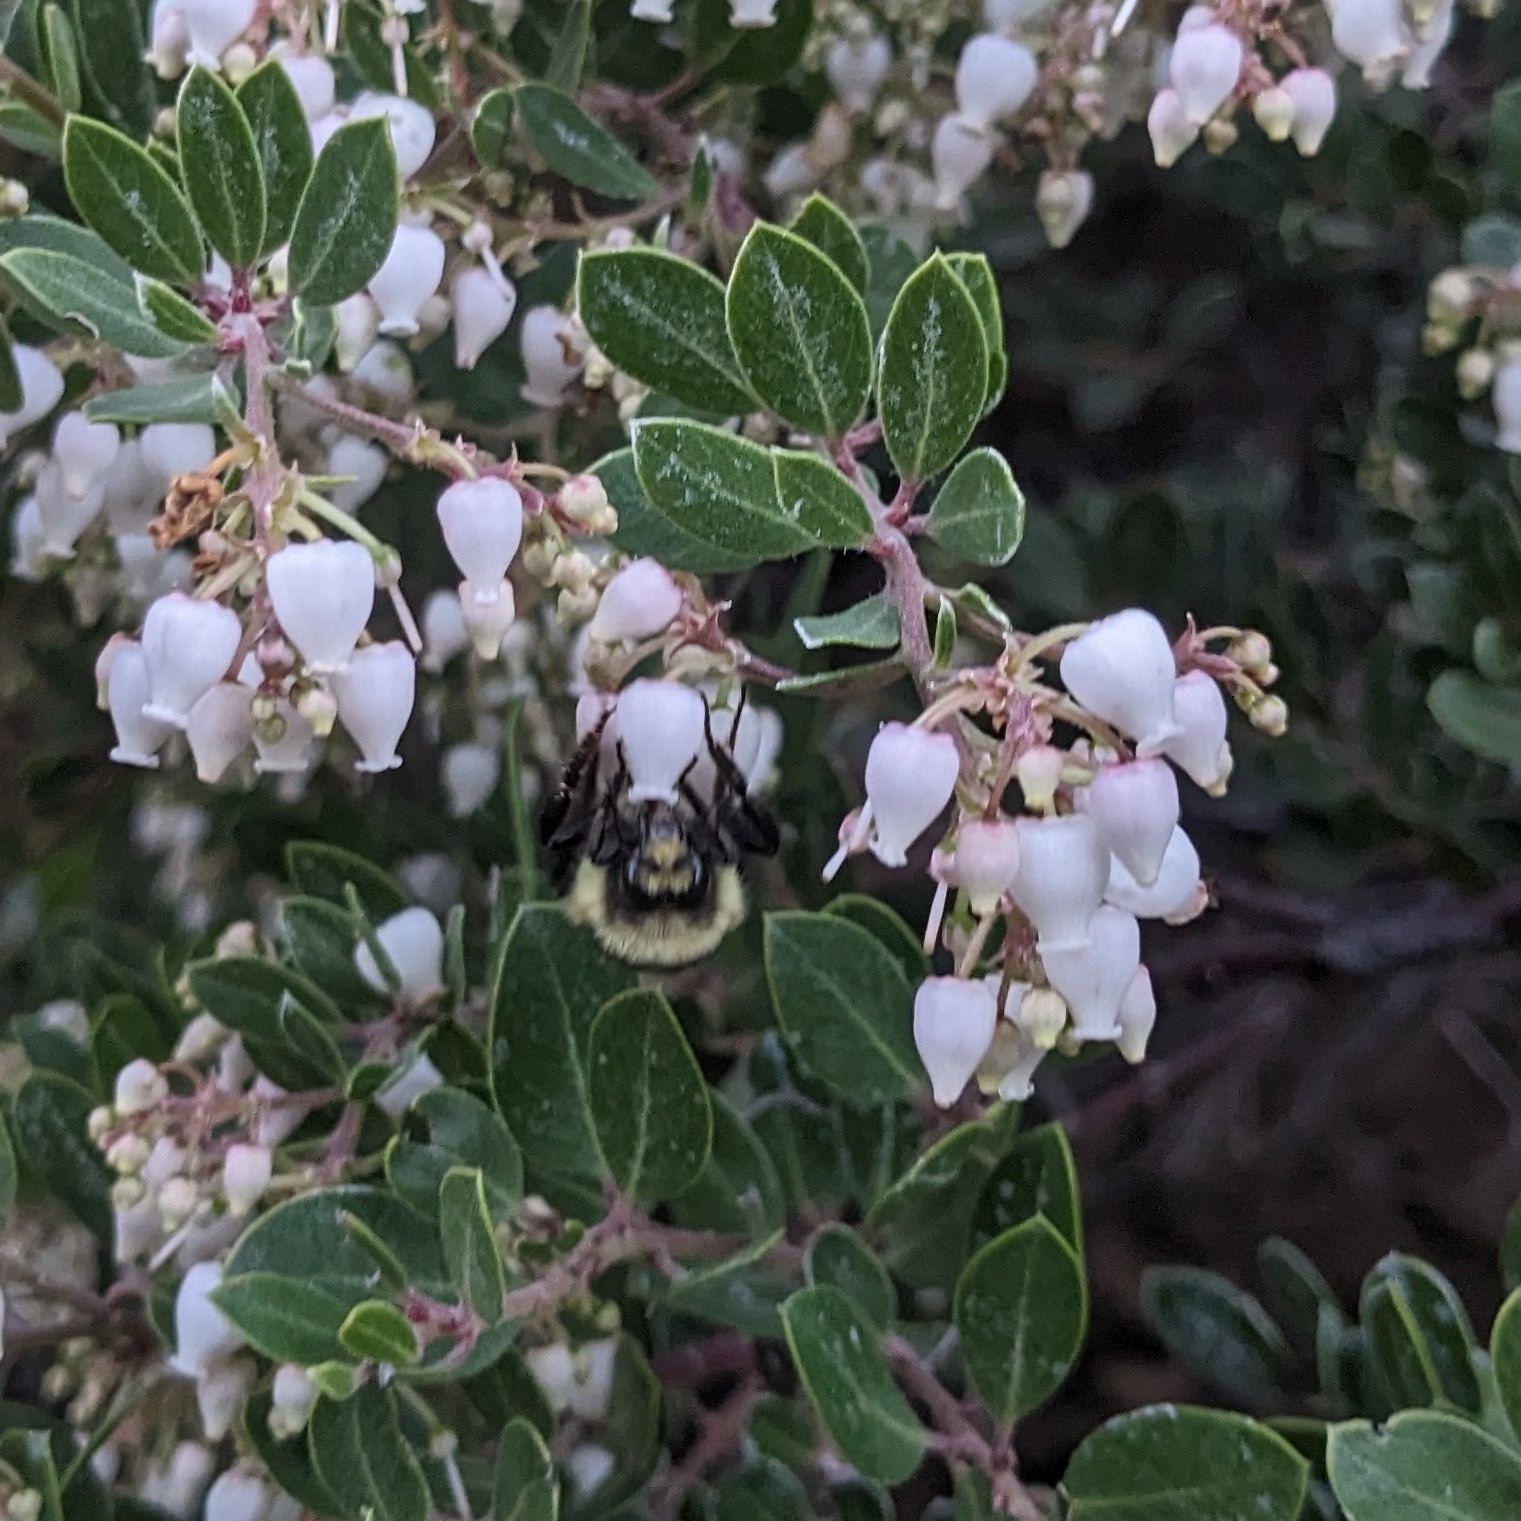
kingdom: Animalia
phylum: Arthropoda
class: Insecta
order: Hymenoptera
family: Apidae
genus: Bombus
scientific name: Bombus melanopygus
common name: Black tail bumble bee
